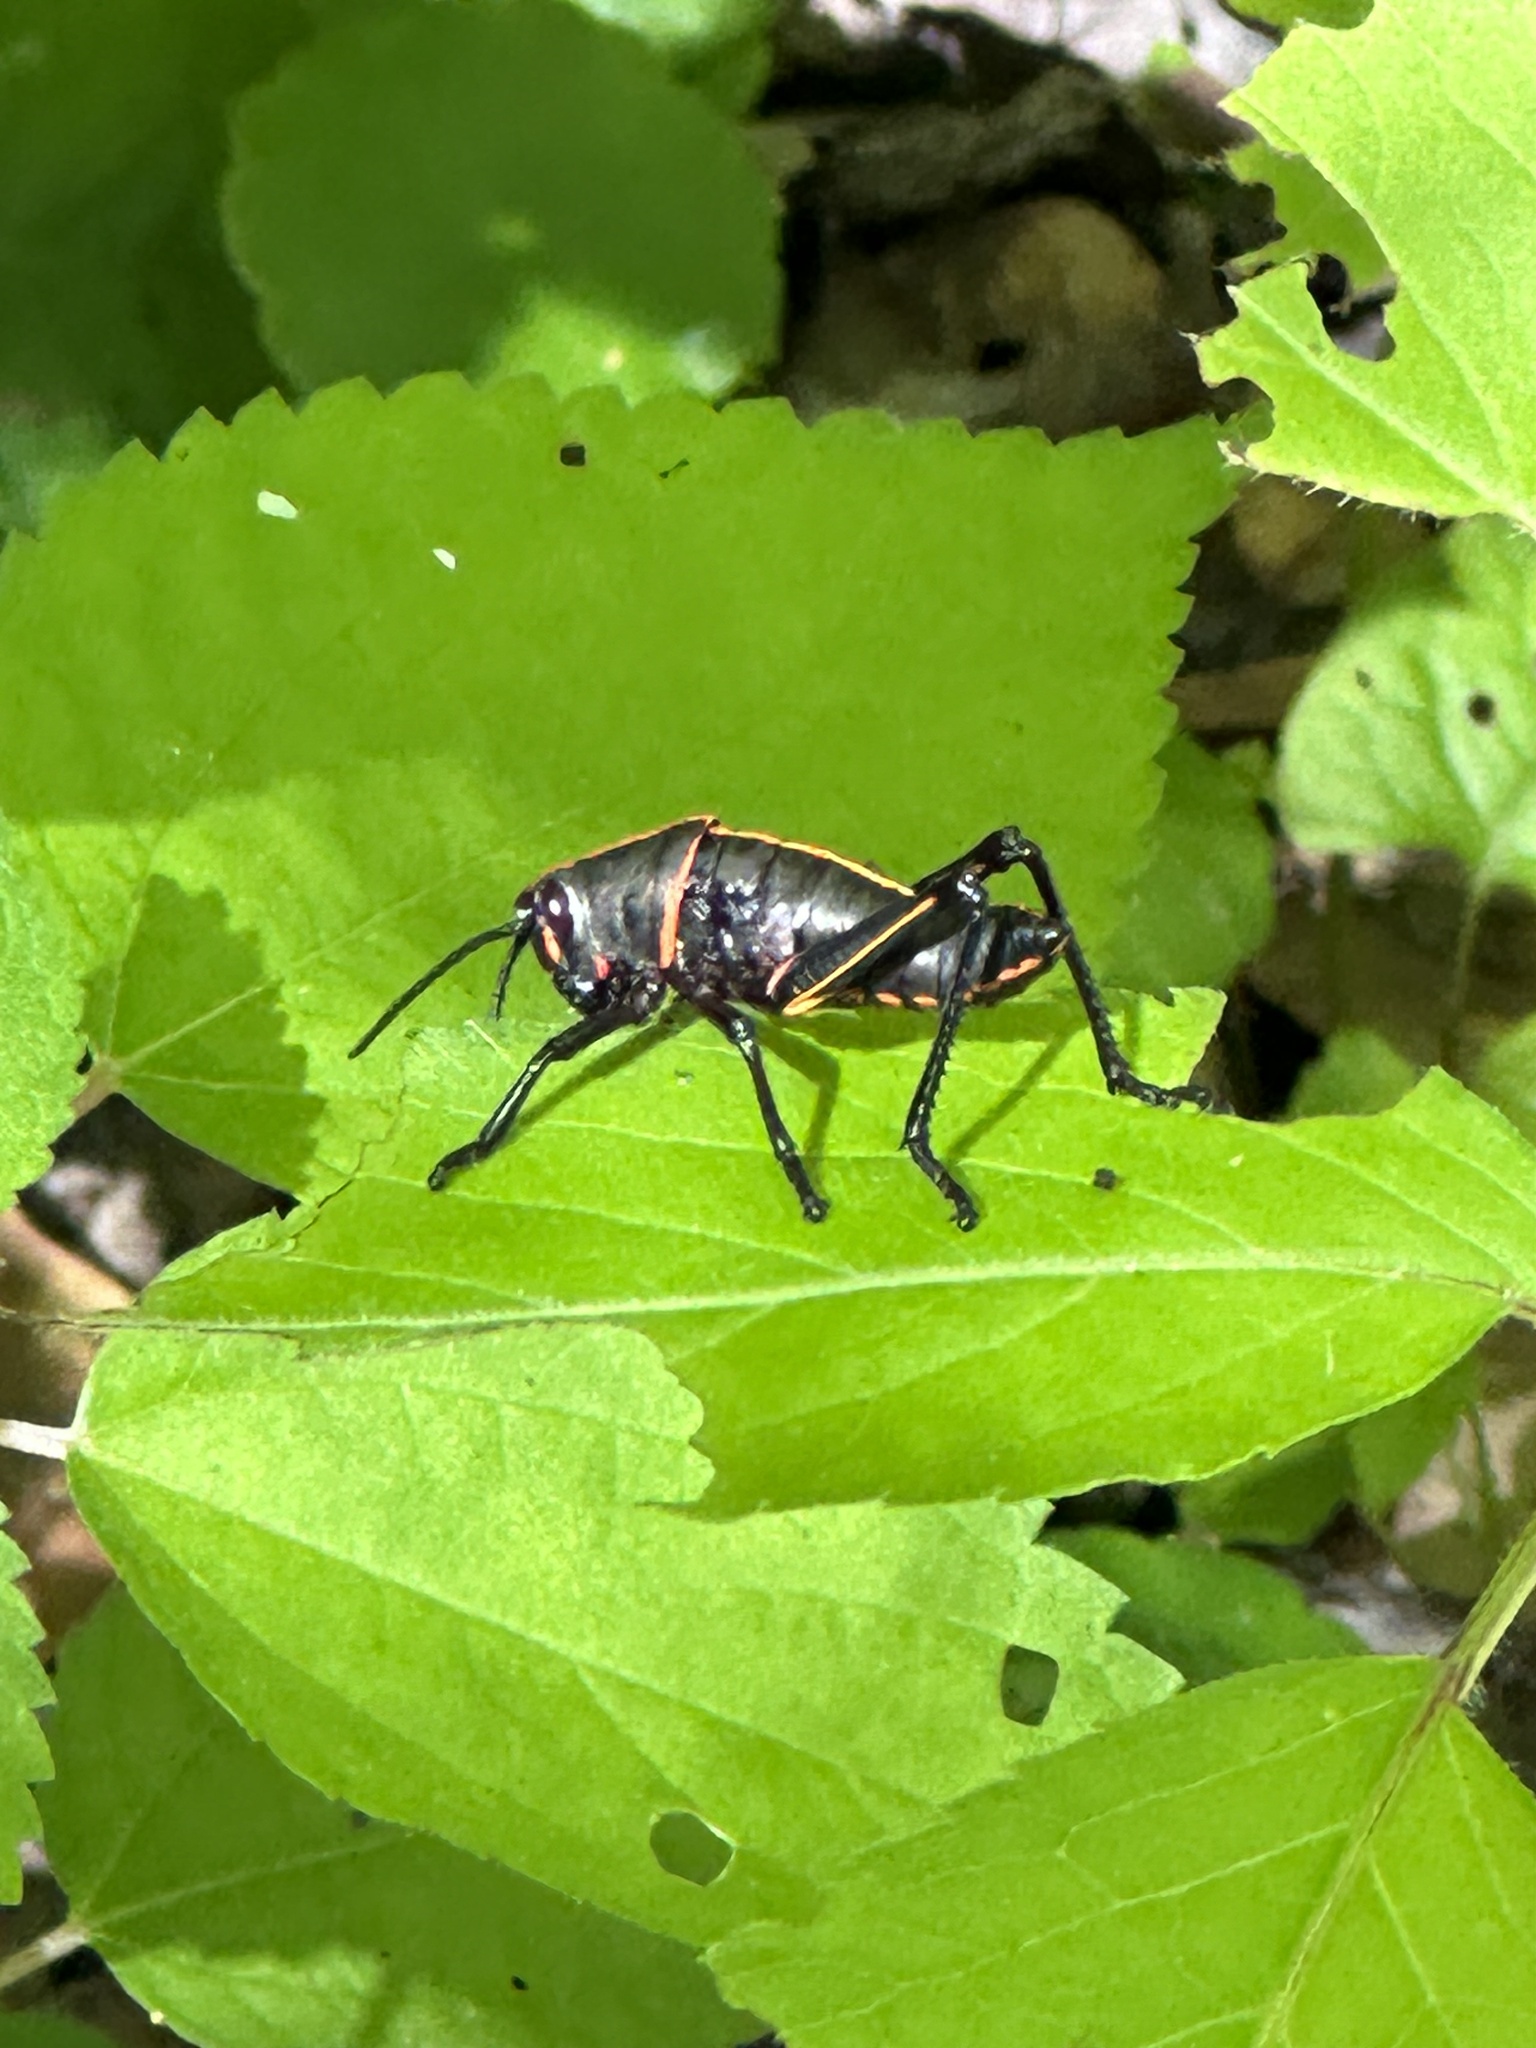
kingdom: Animalia
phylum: Arthropoda
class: Insecta
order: Orthoptera
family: Romaleidae
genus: Romalea
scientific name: Romalea microptera
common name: Eastern lubber grasshopper
